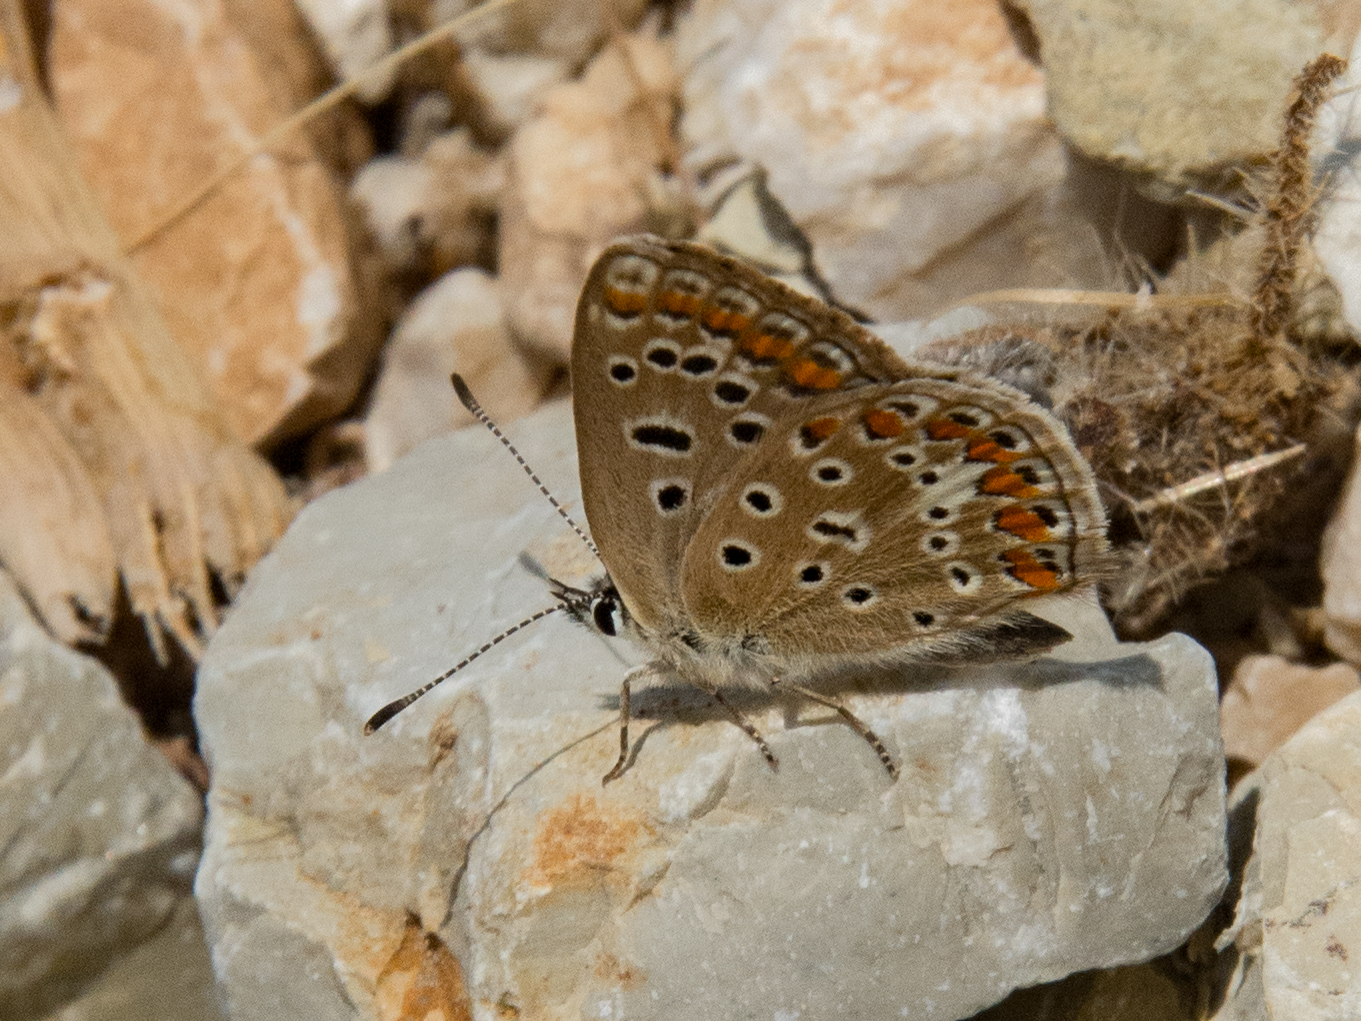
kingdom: Animalia
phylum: Arthropoda
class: Insecta
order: Lepidoptera
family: Lycaenidae
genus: Polyommatus
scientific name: Polyommatus celina
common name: Austaut's blue
